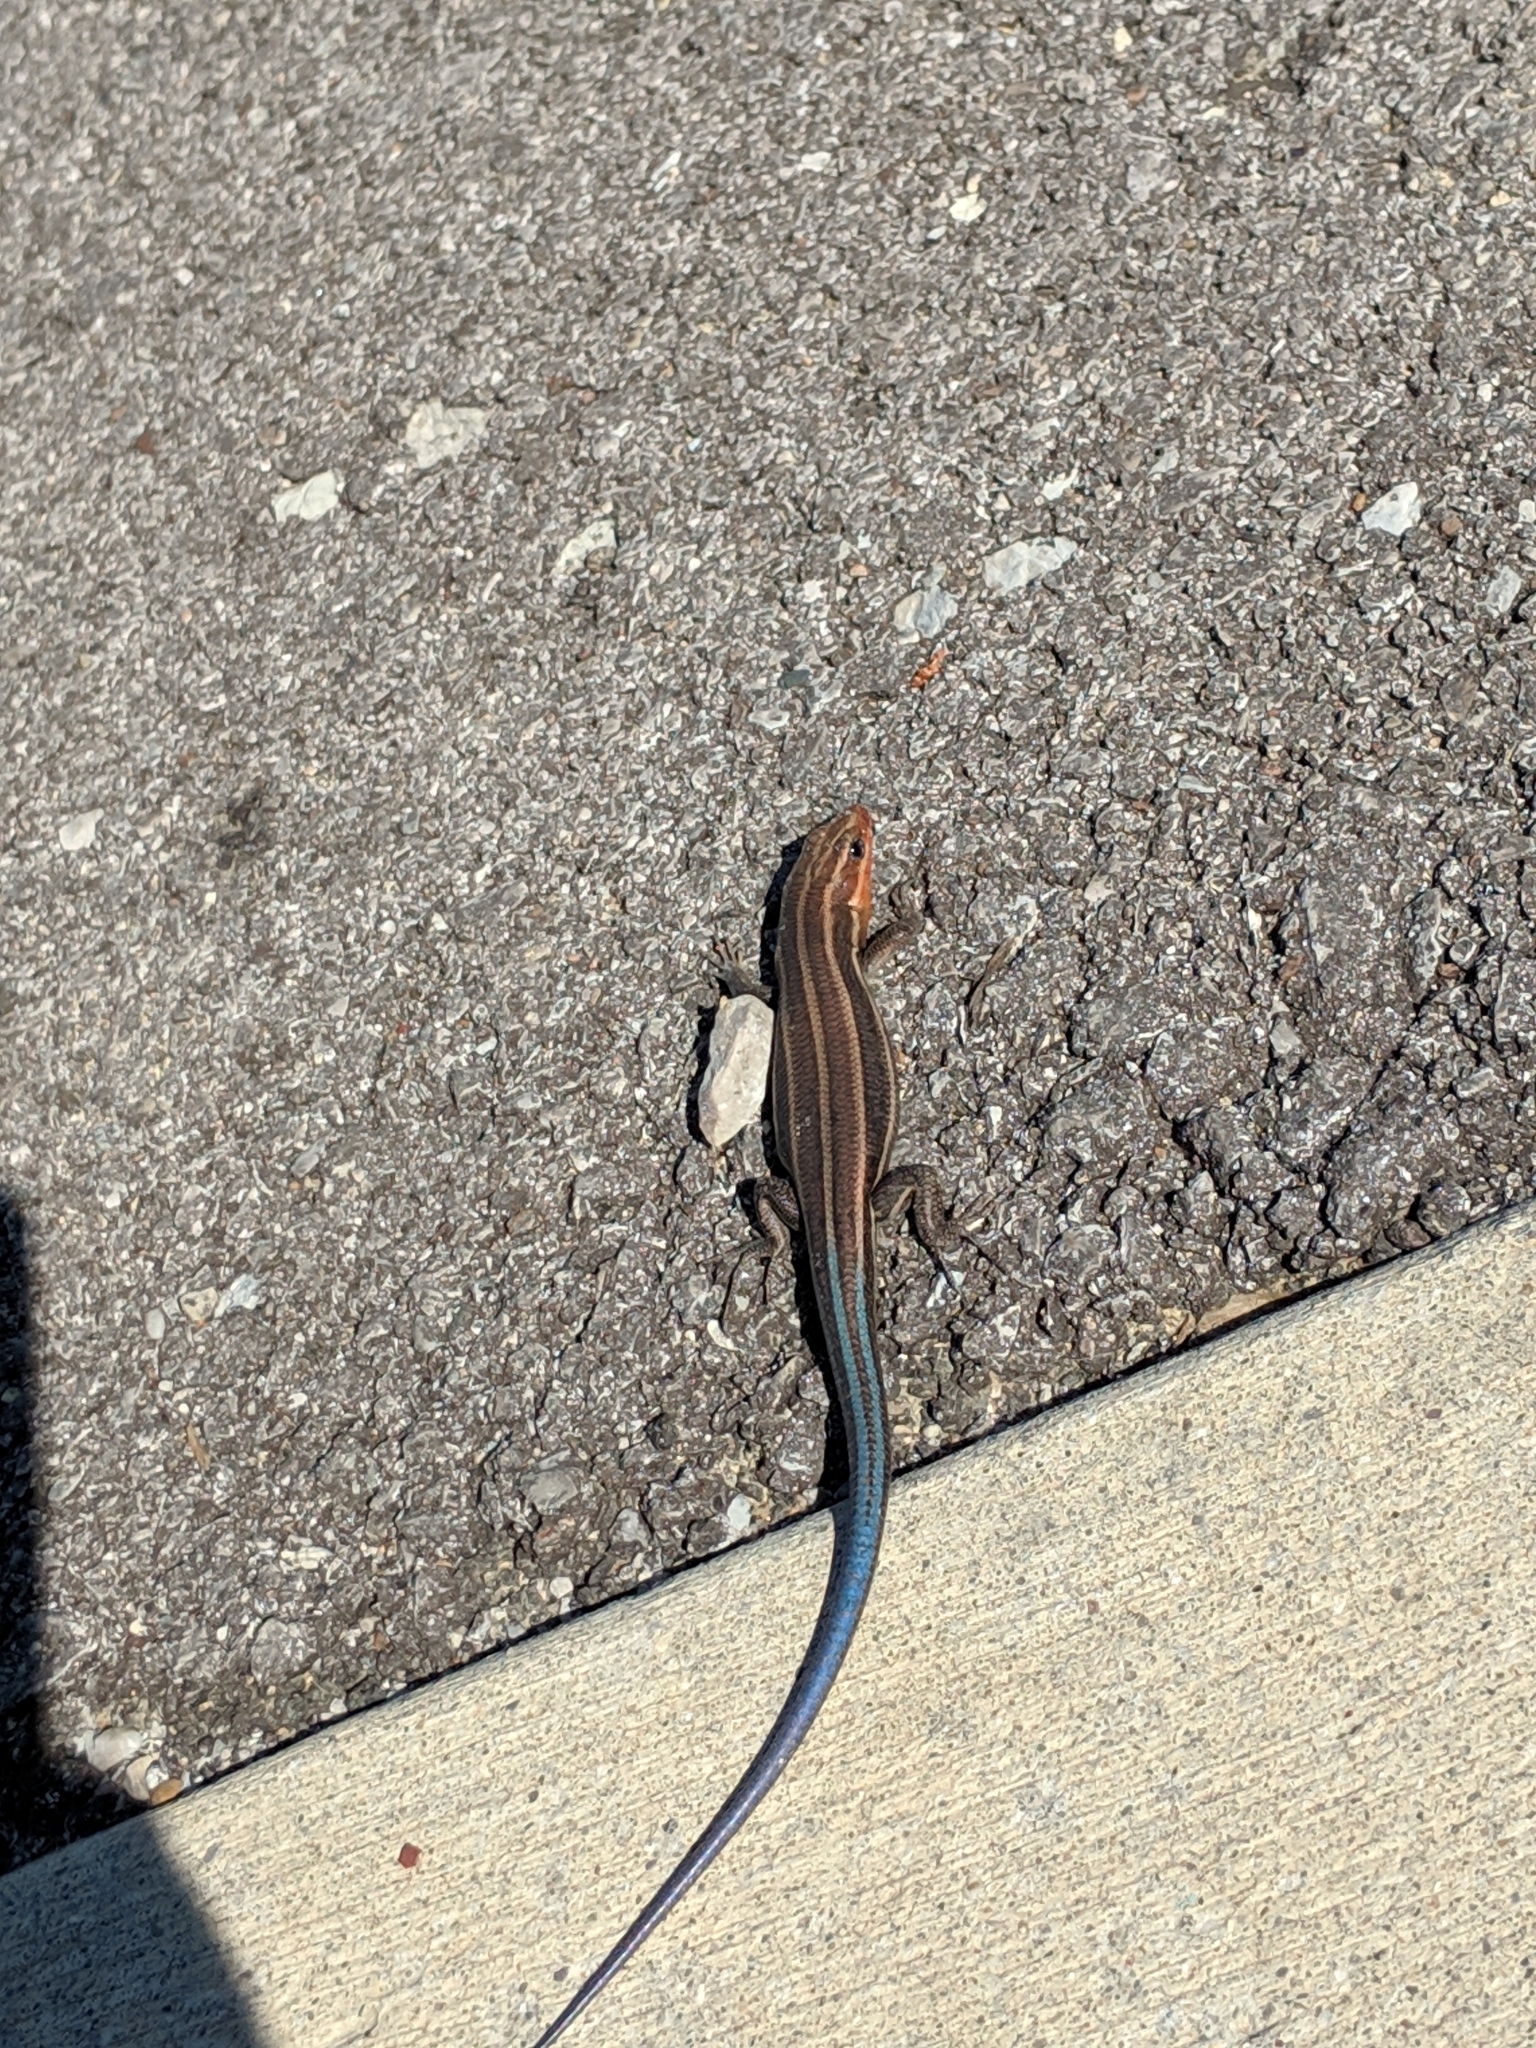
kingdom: Animalia
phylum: Chordata
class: Squamata
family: Scincidae
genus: Plestiodon
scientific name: Plestiodon fasciatus
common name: Five-lined skink
